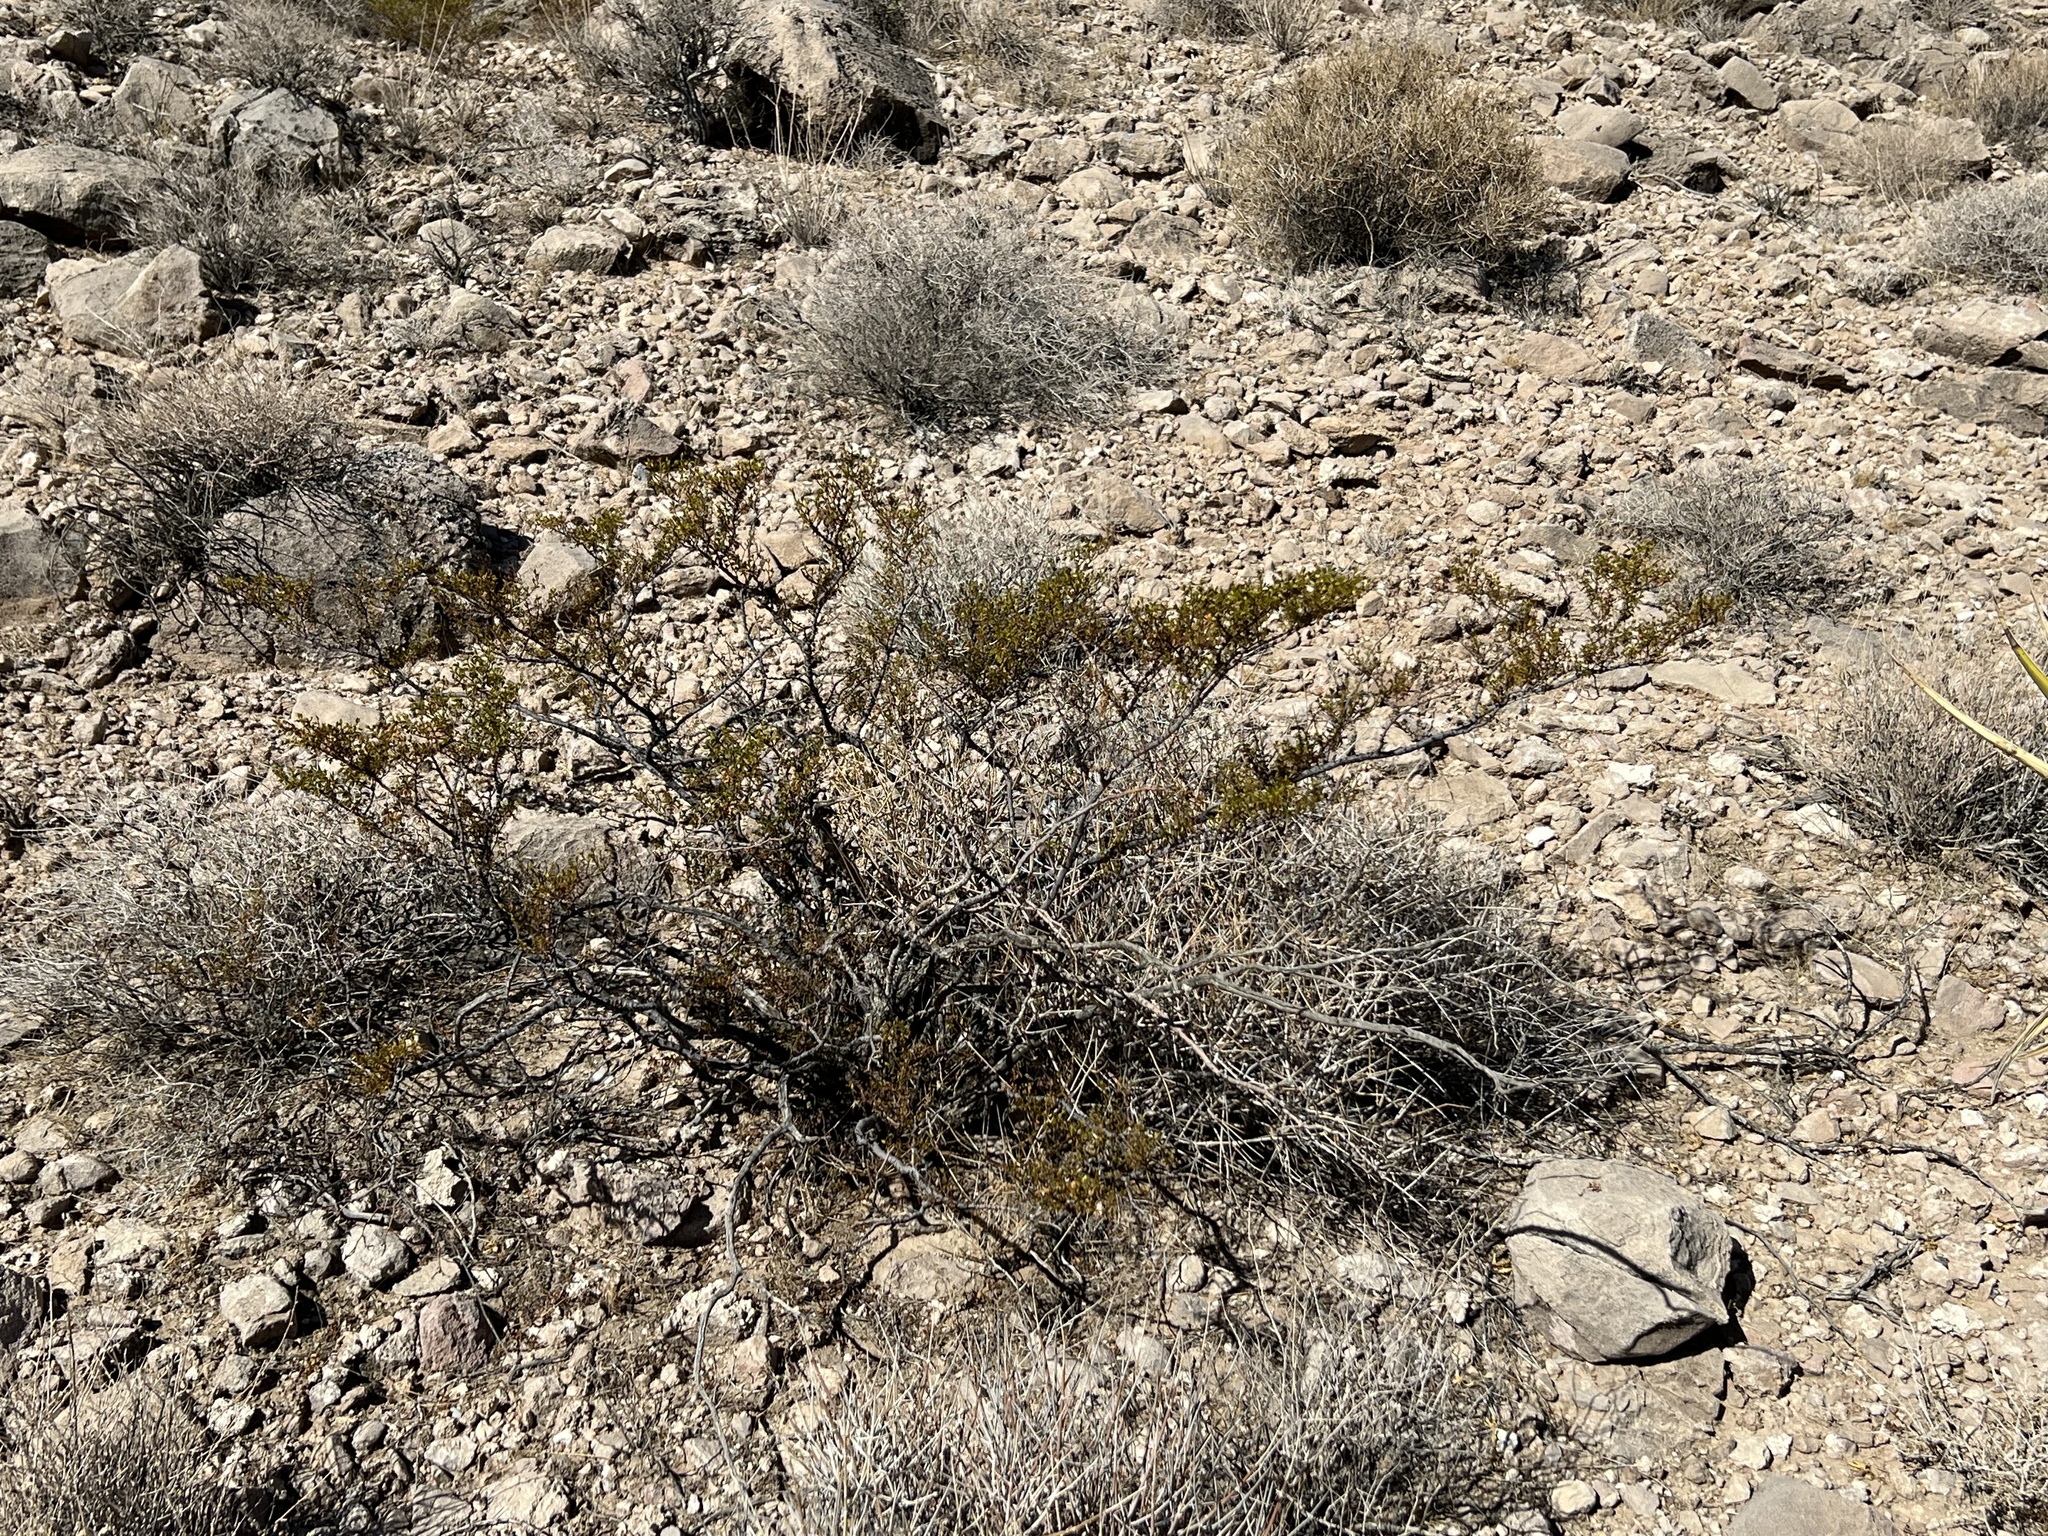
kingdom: Plantae
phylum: Tracheophyta
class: Magnoliopsida
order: Zygophyllales
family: Zygophyllaceae
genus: Larrea
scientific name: Larrea tridentata
